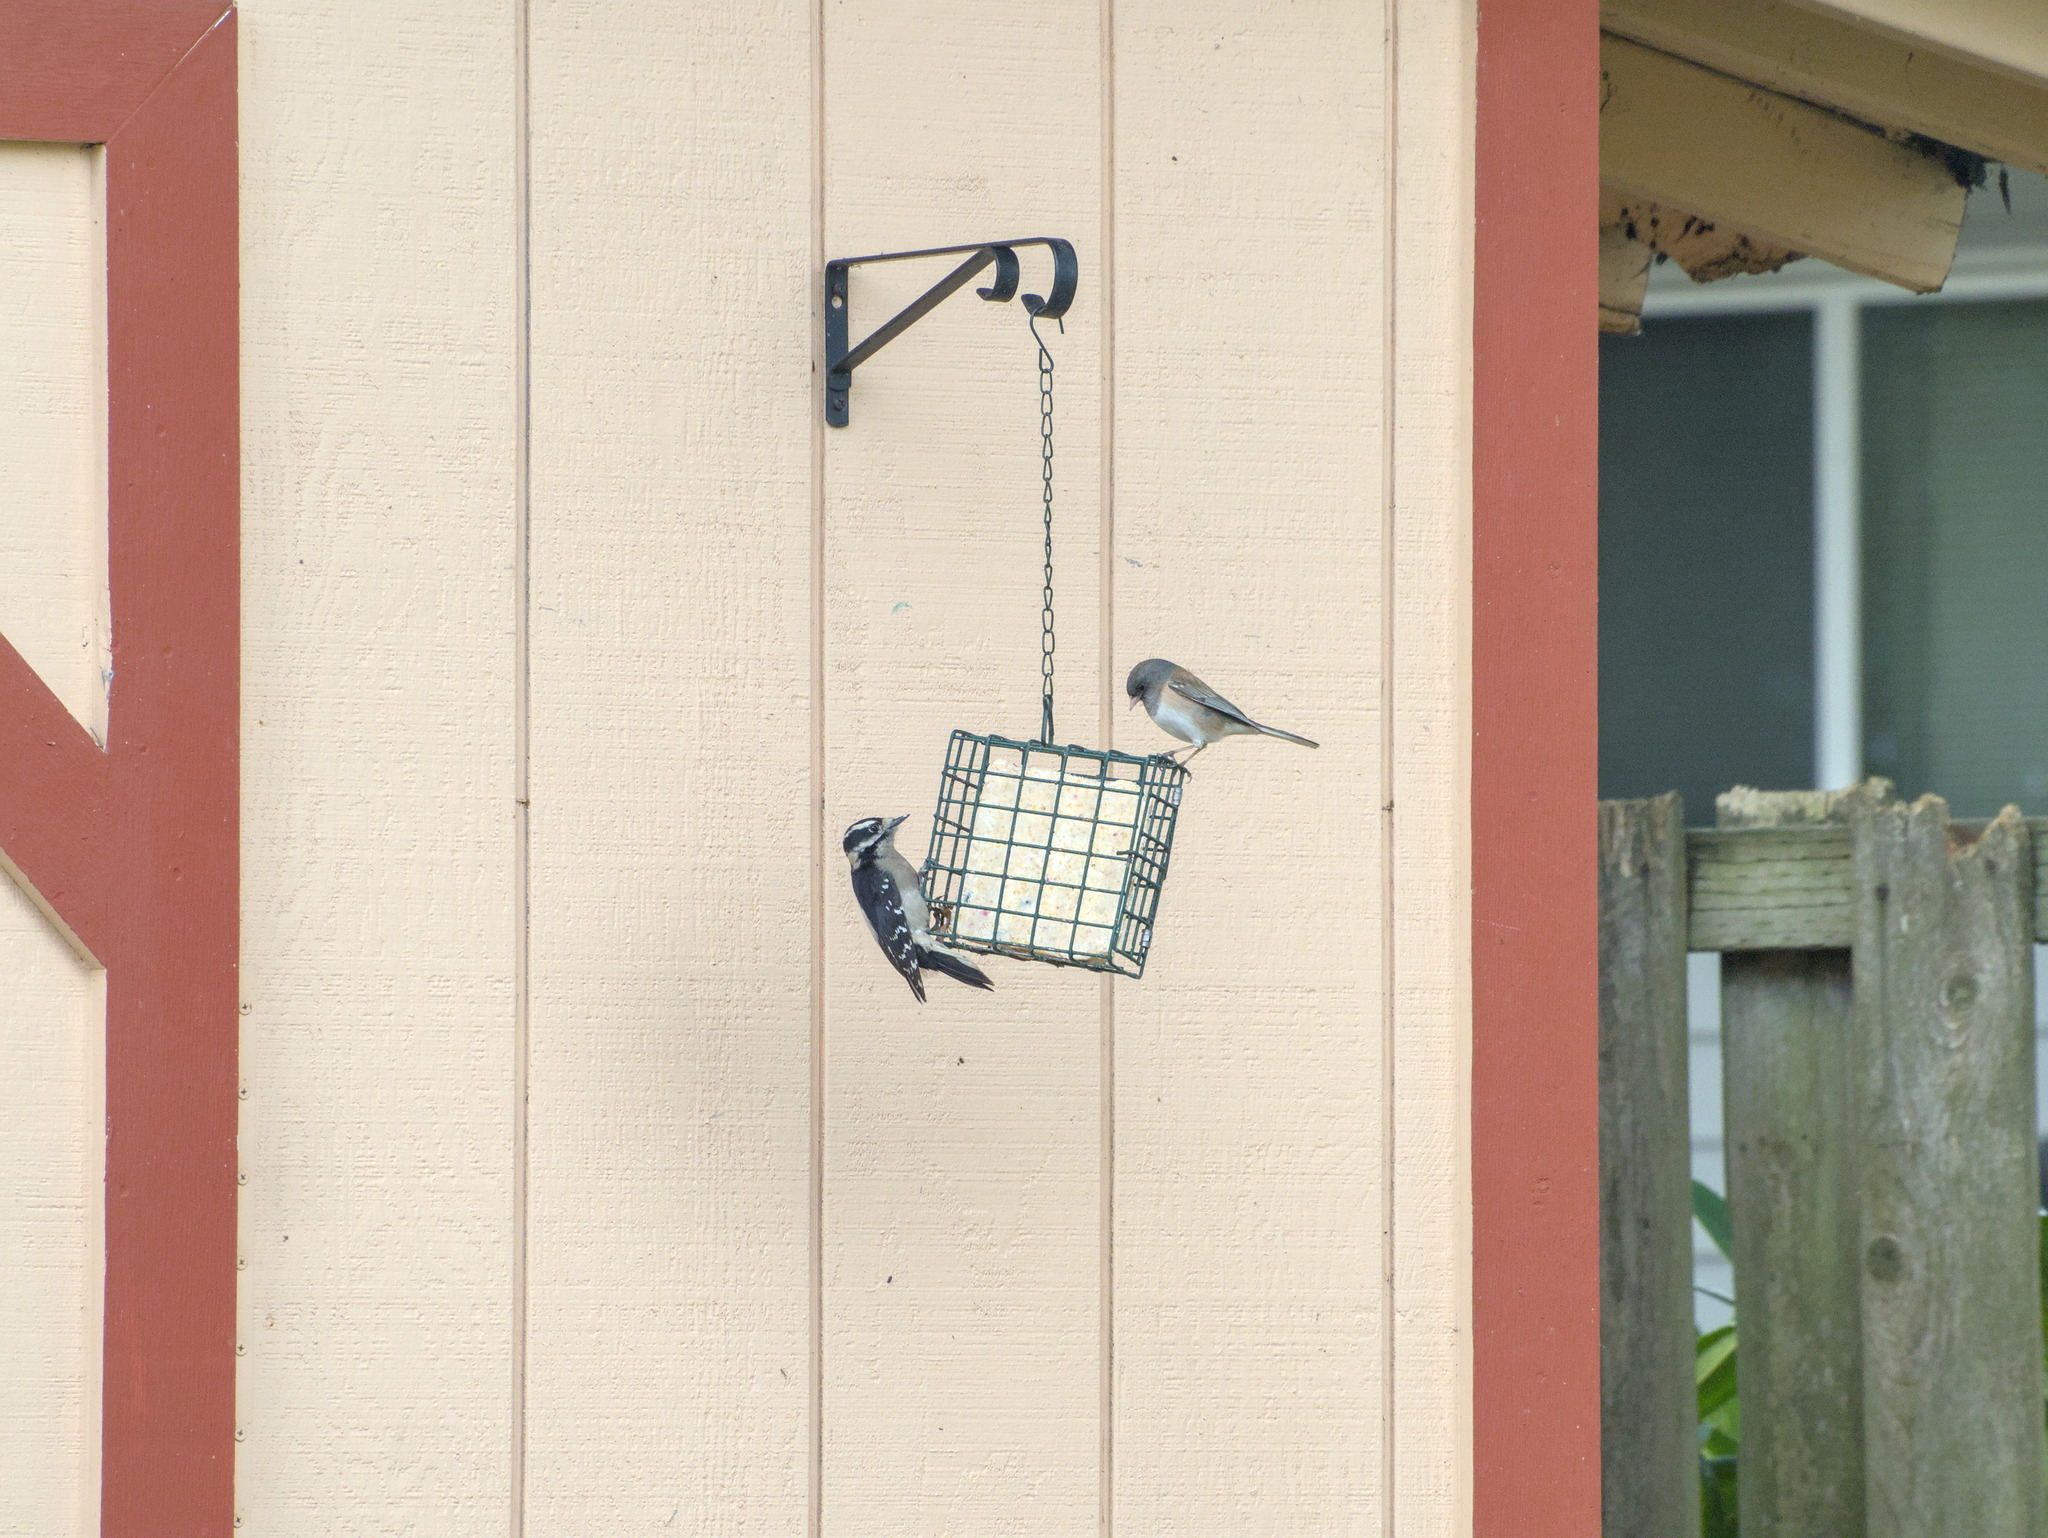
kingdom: Animalia
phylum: Chordata
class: Aves
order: Piciformes
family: Picidae
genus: Dryobates
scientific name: Dryobates pubescens
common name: Downy woodpecker
